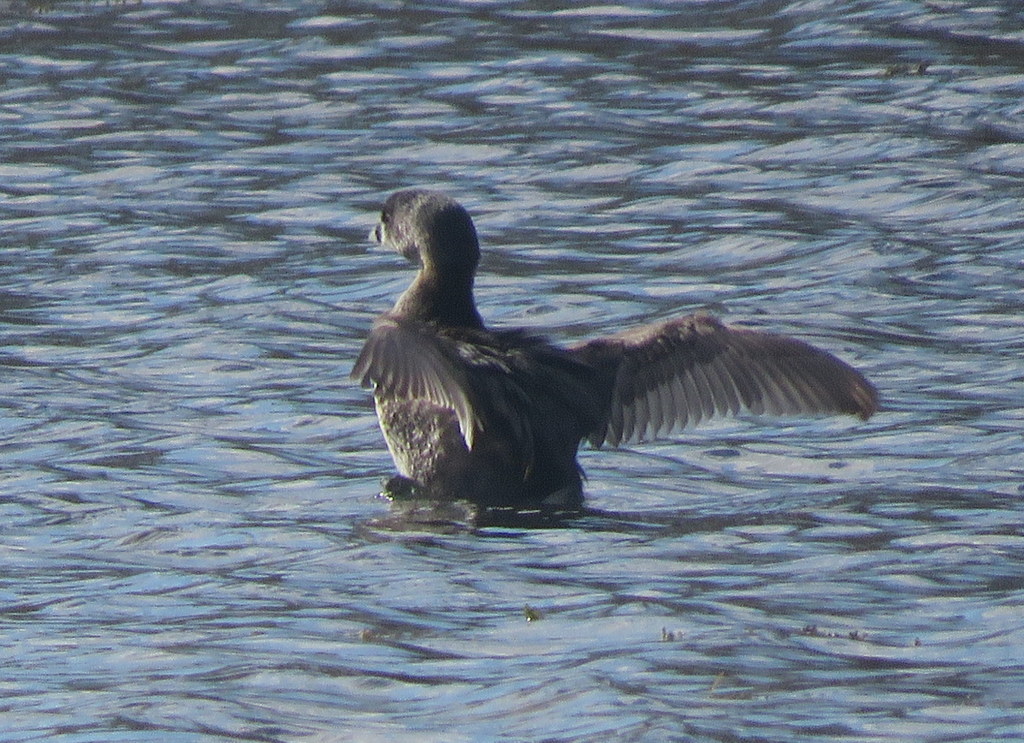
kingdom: Animalia
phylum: Chordata
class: Aves
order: Podicipediformes
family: Podicipedidae
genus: Podilymbus
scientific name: Podilymbus podiceps
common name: Pied-billed grebe
